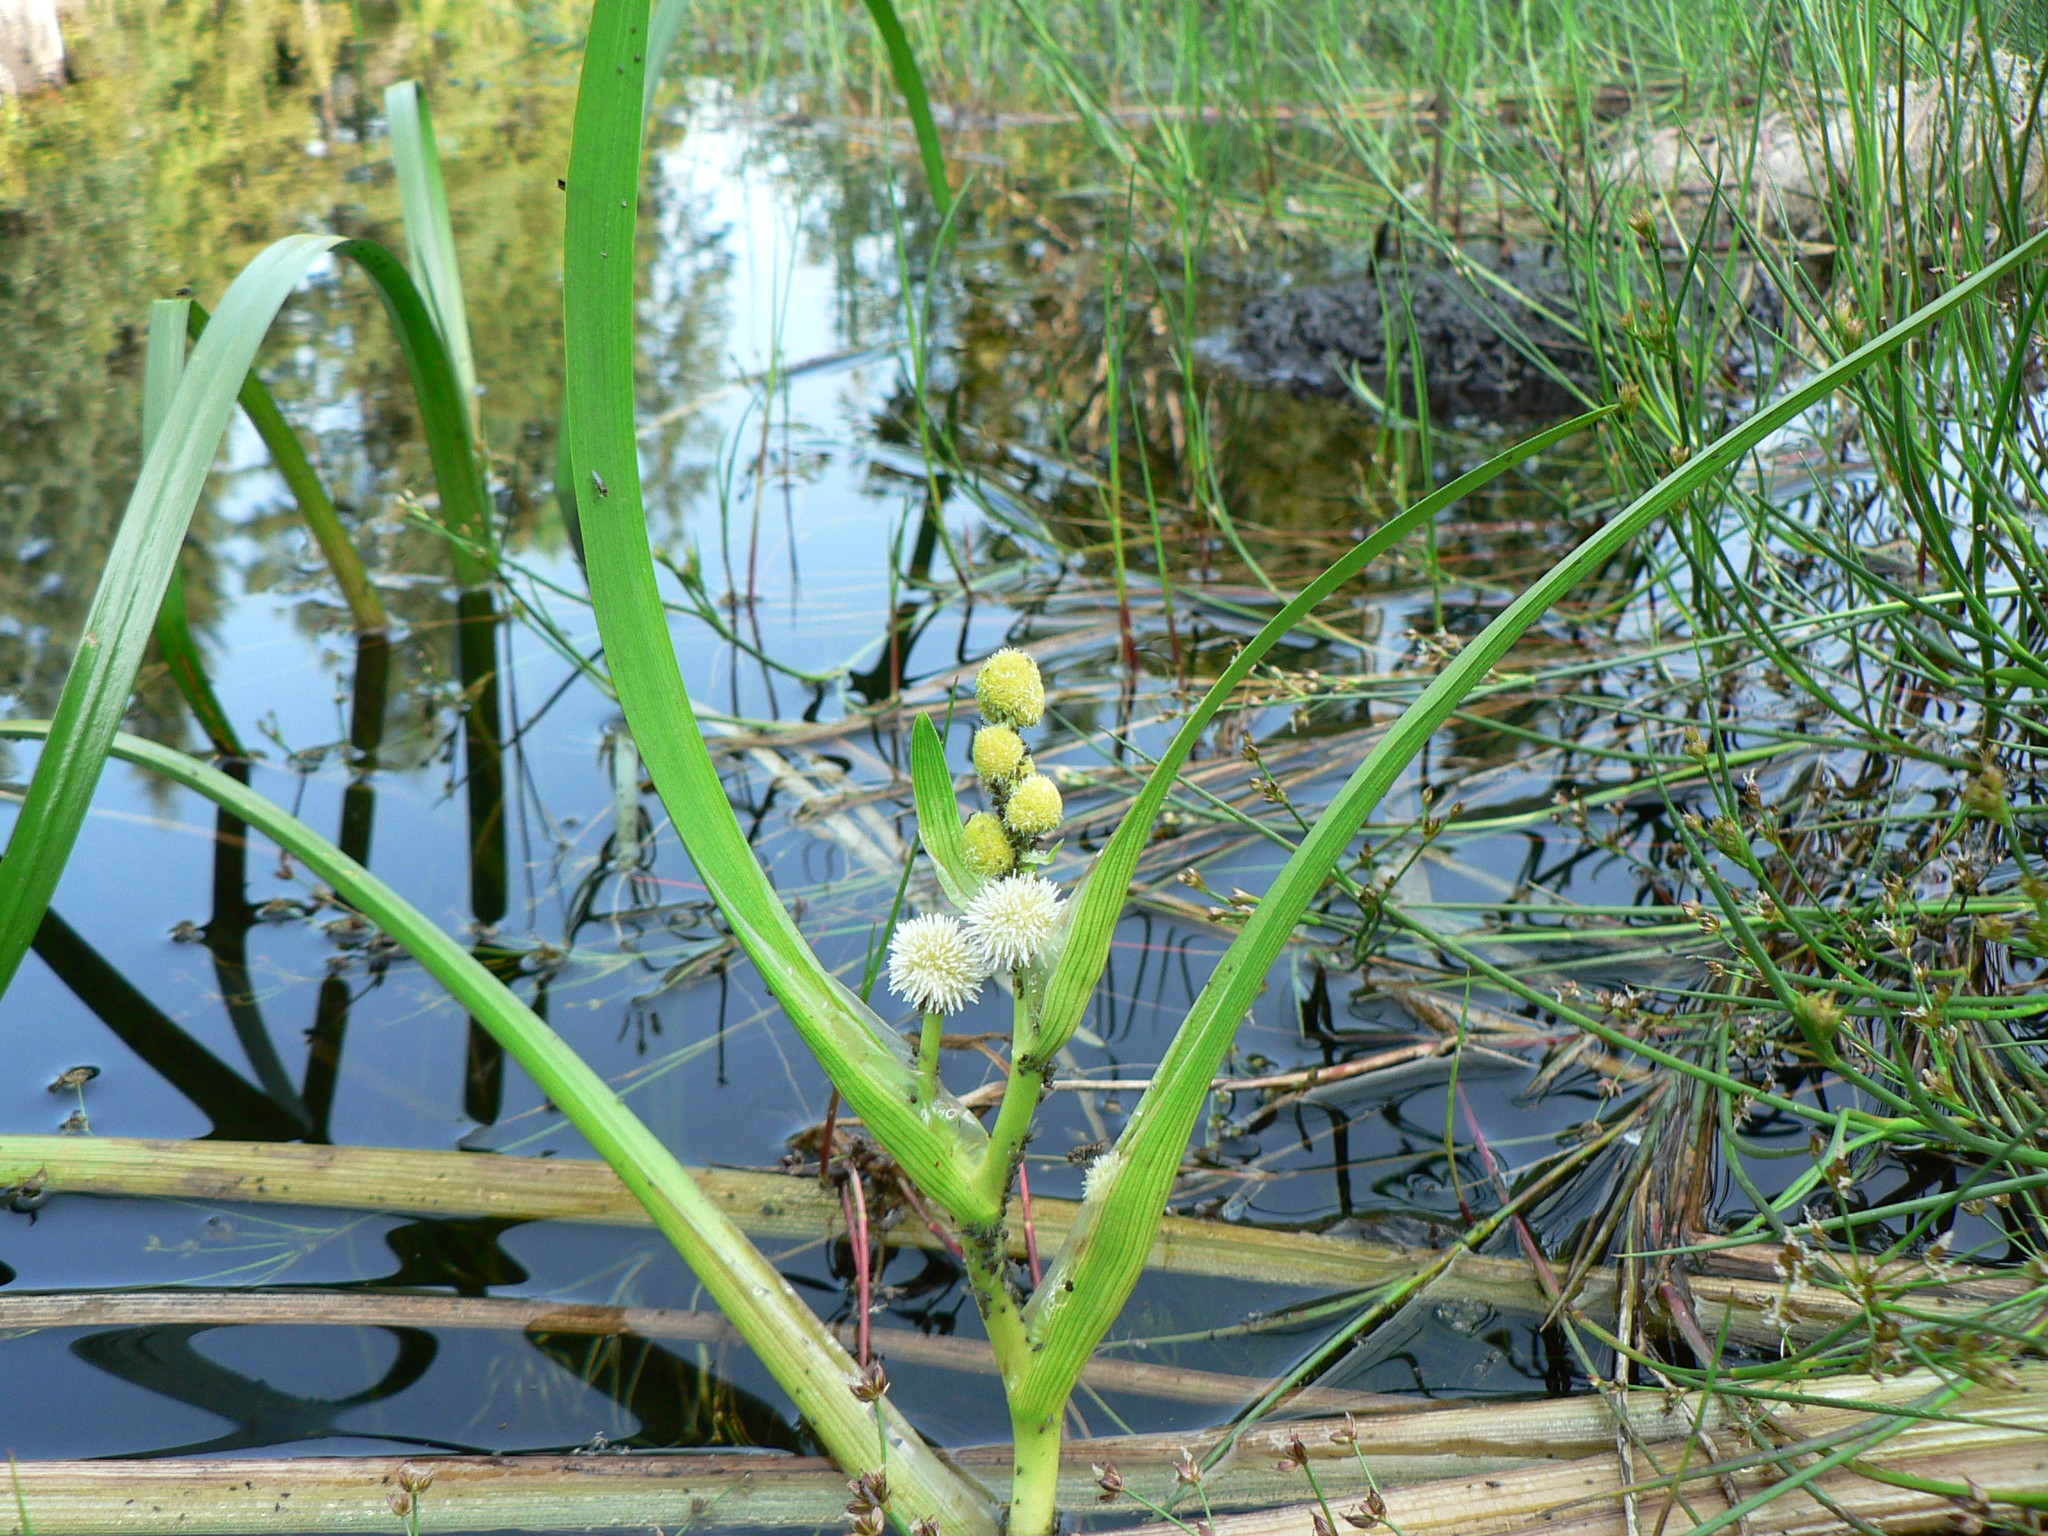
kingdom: Plantae
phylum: Tracheophyta
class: Liliopsida
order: Poales
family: Typhaceae
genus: Sparganium
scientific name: Sparganium emersum
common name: Unbranched bur-reed
